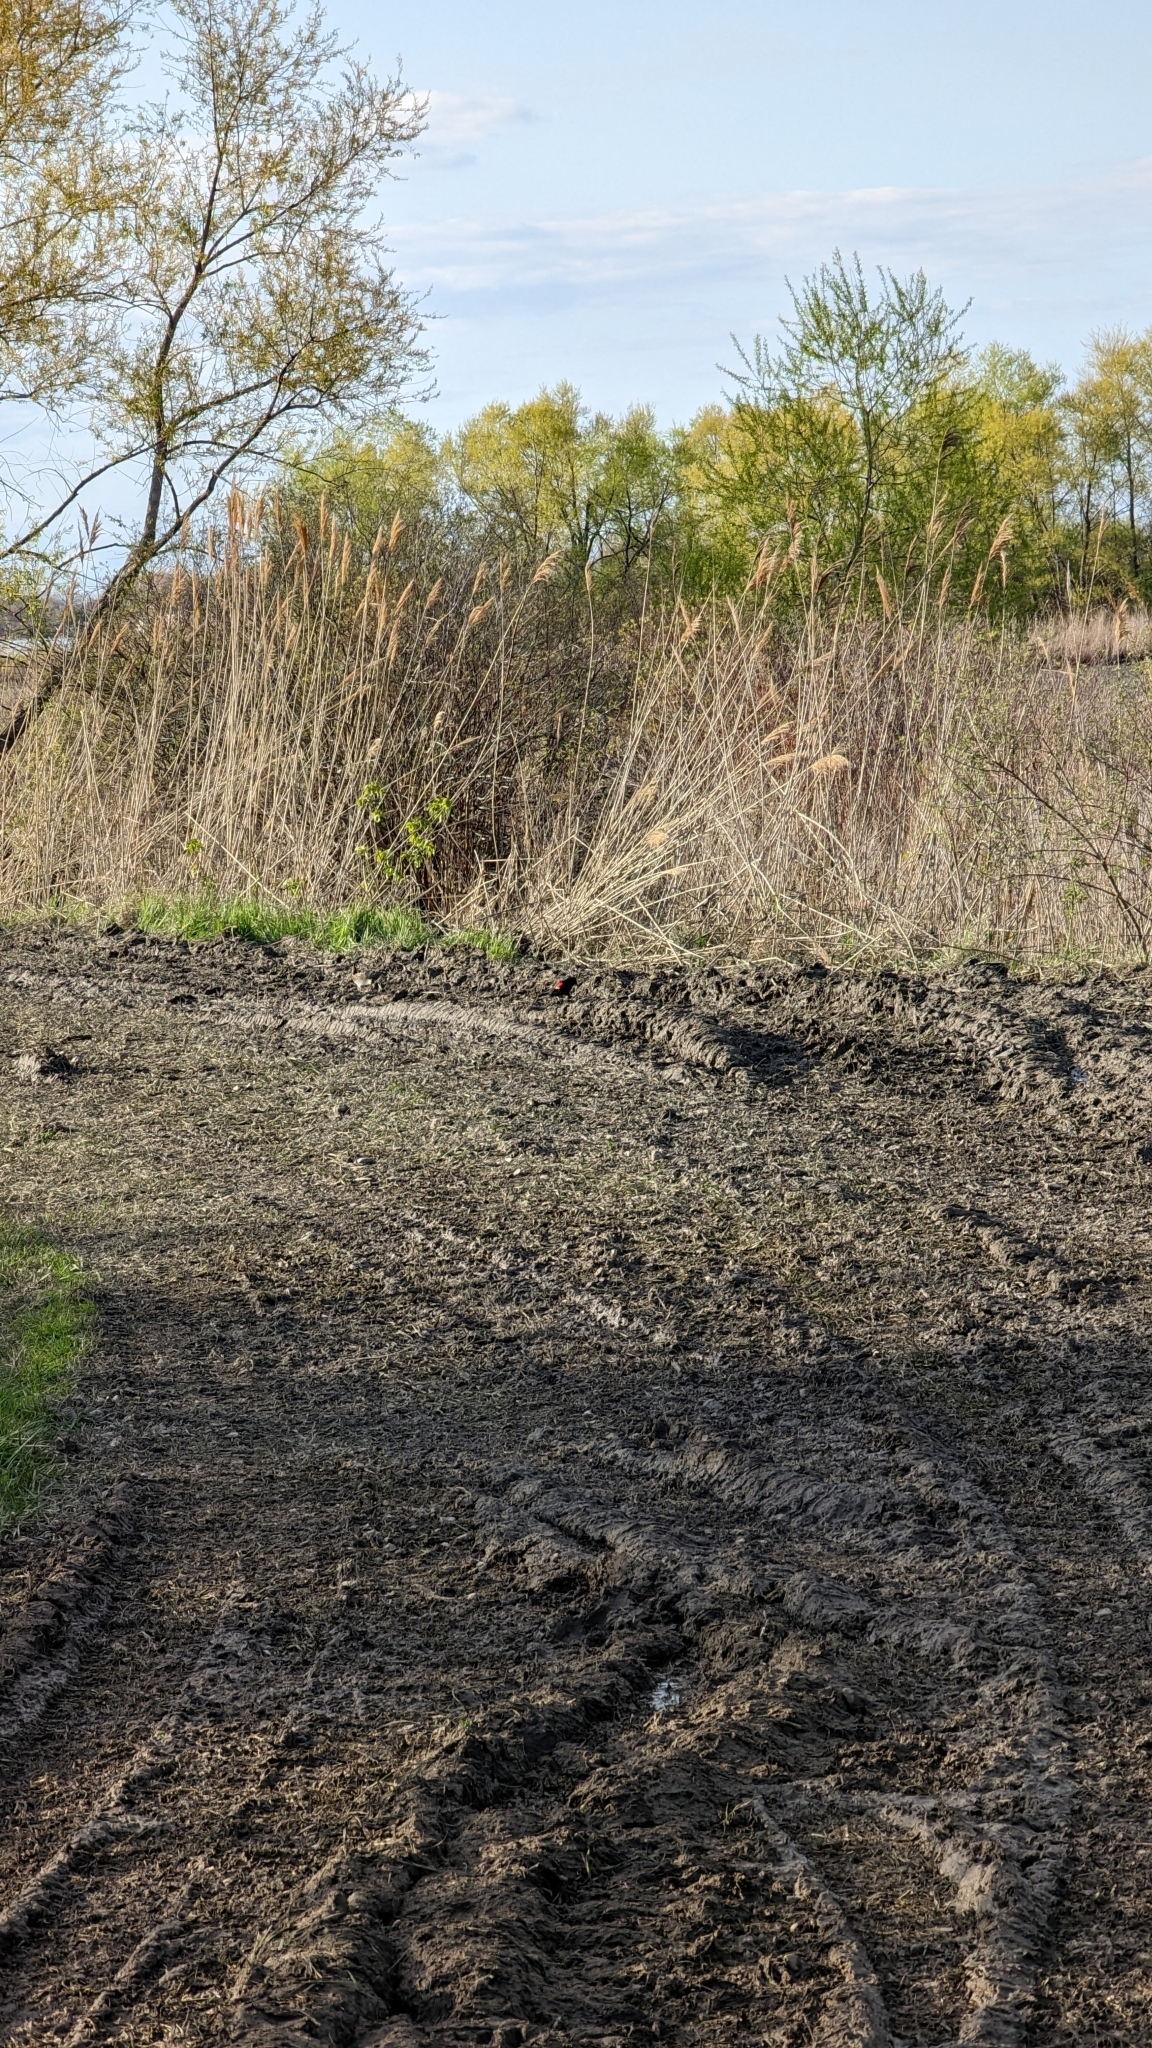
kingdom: Animalia
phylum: Chordata
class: Aves
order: Gruiformes
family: Rallidae
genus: Porzana
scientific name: Porzana carolina
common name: Sora
